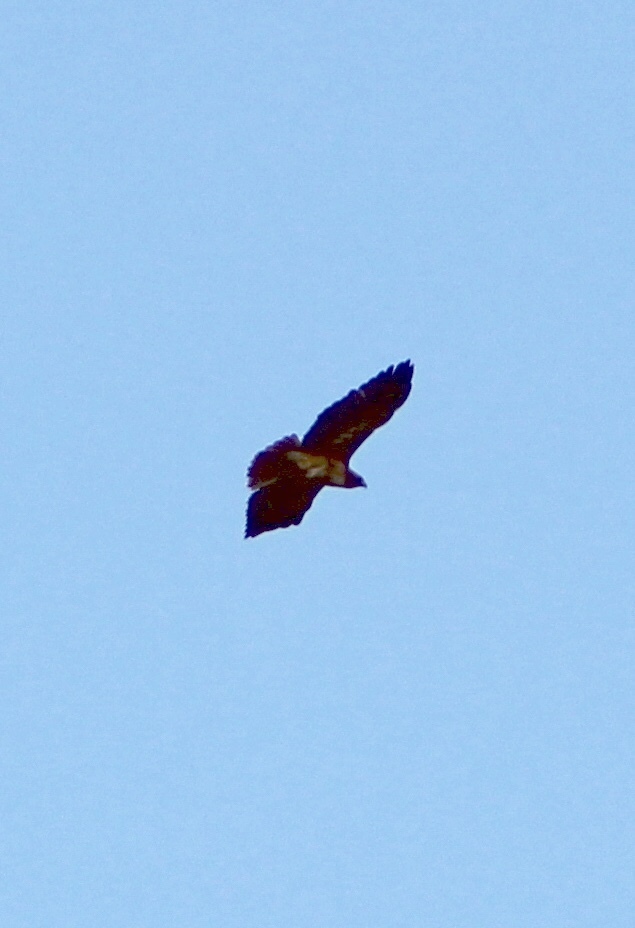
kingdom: Animalia
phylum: Chordata
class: Aves
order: Accipitriformes
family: Accipitridae
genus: Buteo
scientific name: Buteo jamaicensis
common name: Red-tailed hawk
